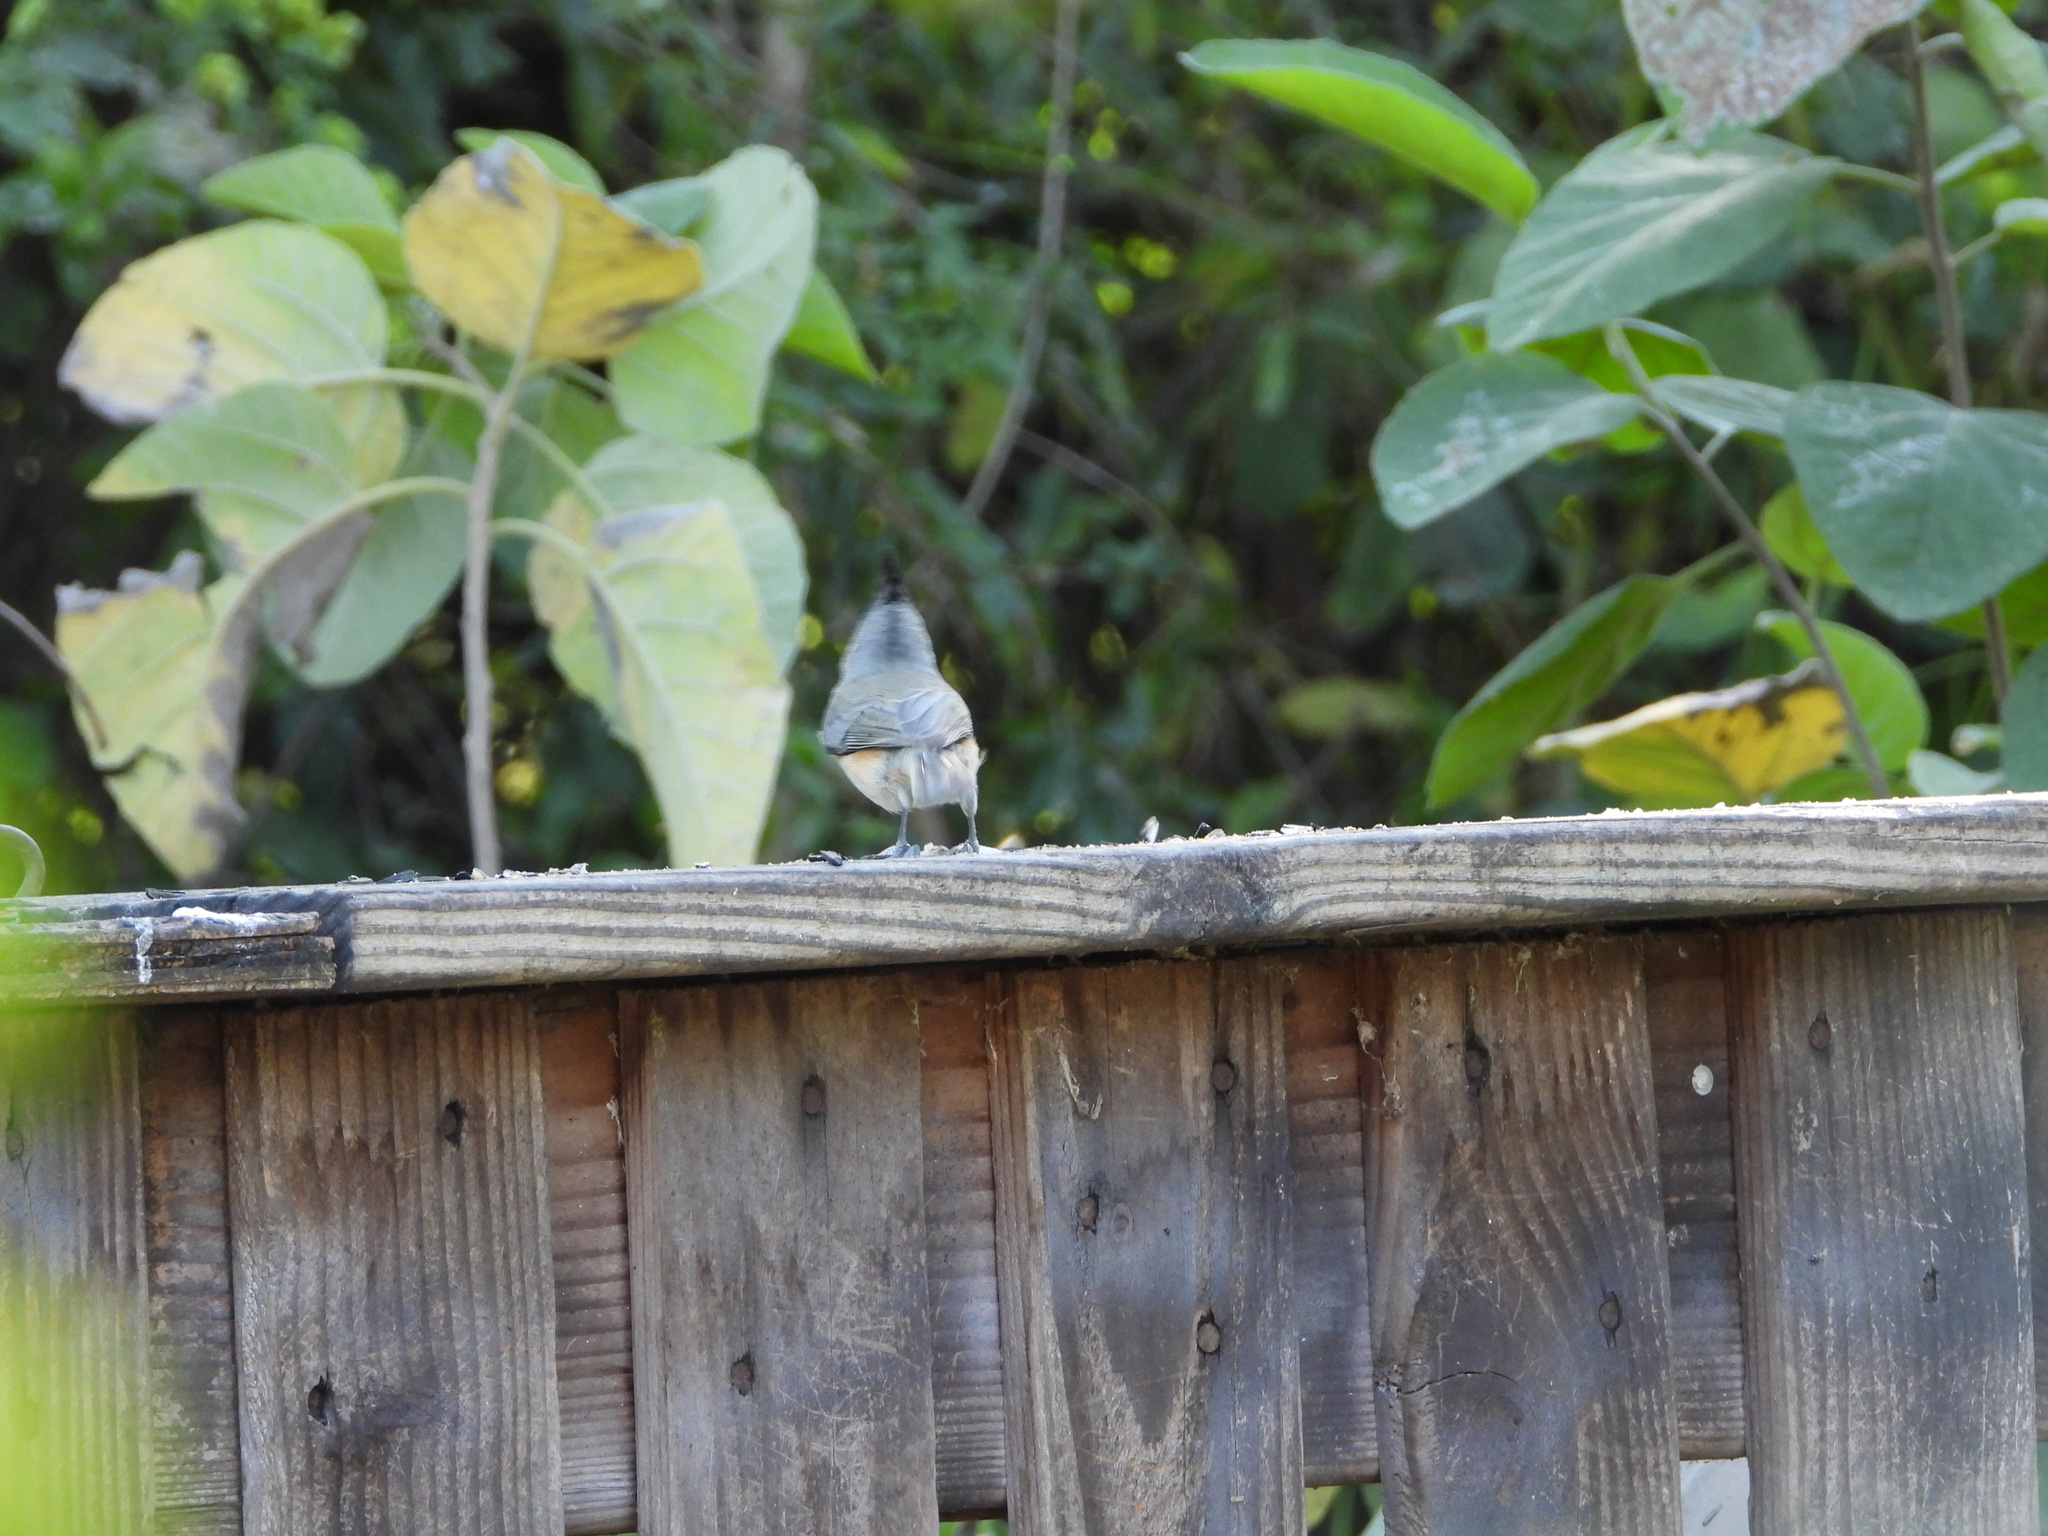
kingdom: Animalia
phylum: Chordata
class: Aves
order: Passeriformes
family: Paridae
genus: Baeolophus
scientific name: Baeolophus atricristatus
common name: Black-crested titmouse
